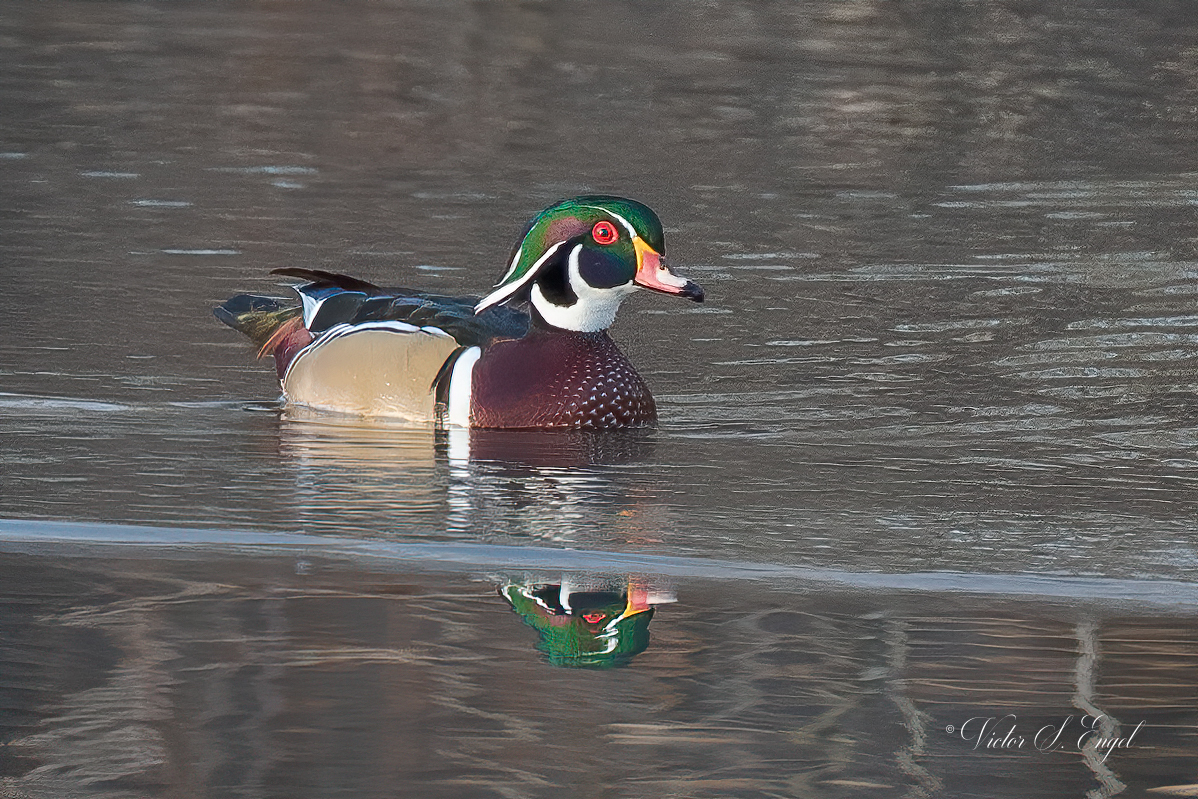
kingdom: Animalia
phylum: Chordata
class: Aves
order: Anseriformes
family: Anatidae
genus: Aix
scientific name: Aix sponsa
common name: Wood duck
